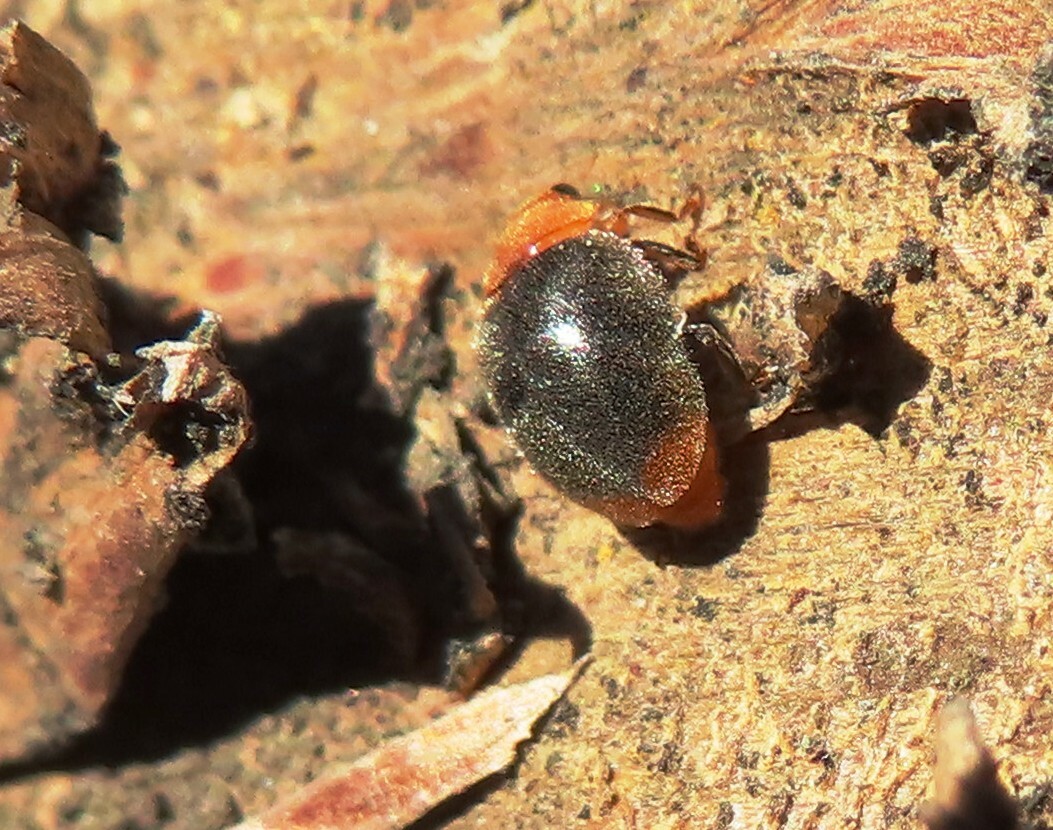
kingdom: Animalia
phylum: Arthropoda
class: Insecta
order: Coleoptera
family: Coccinellidae
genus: Cryptolaemus
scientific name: Cryptolaemus montrouzieri
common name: Mealybug destroyer
